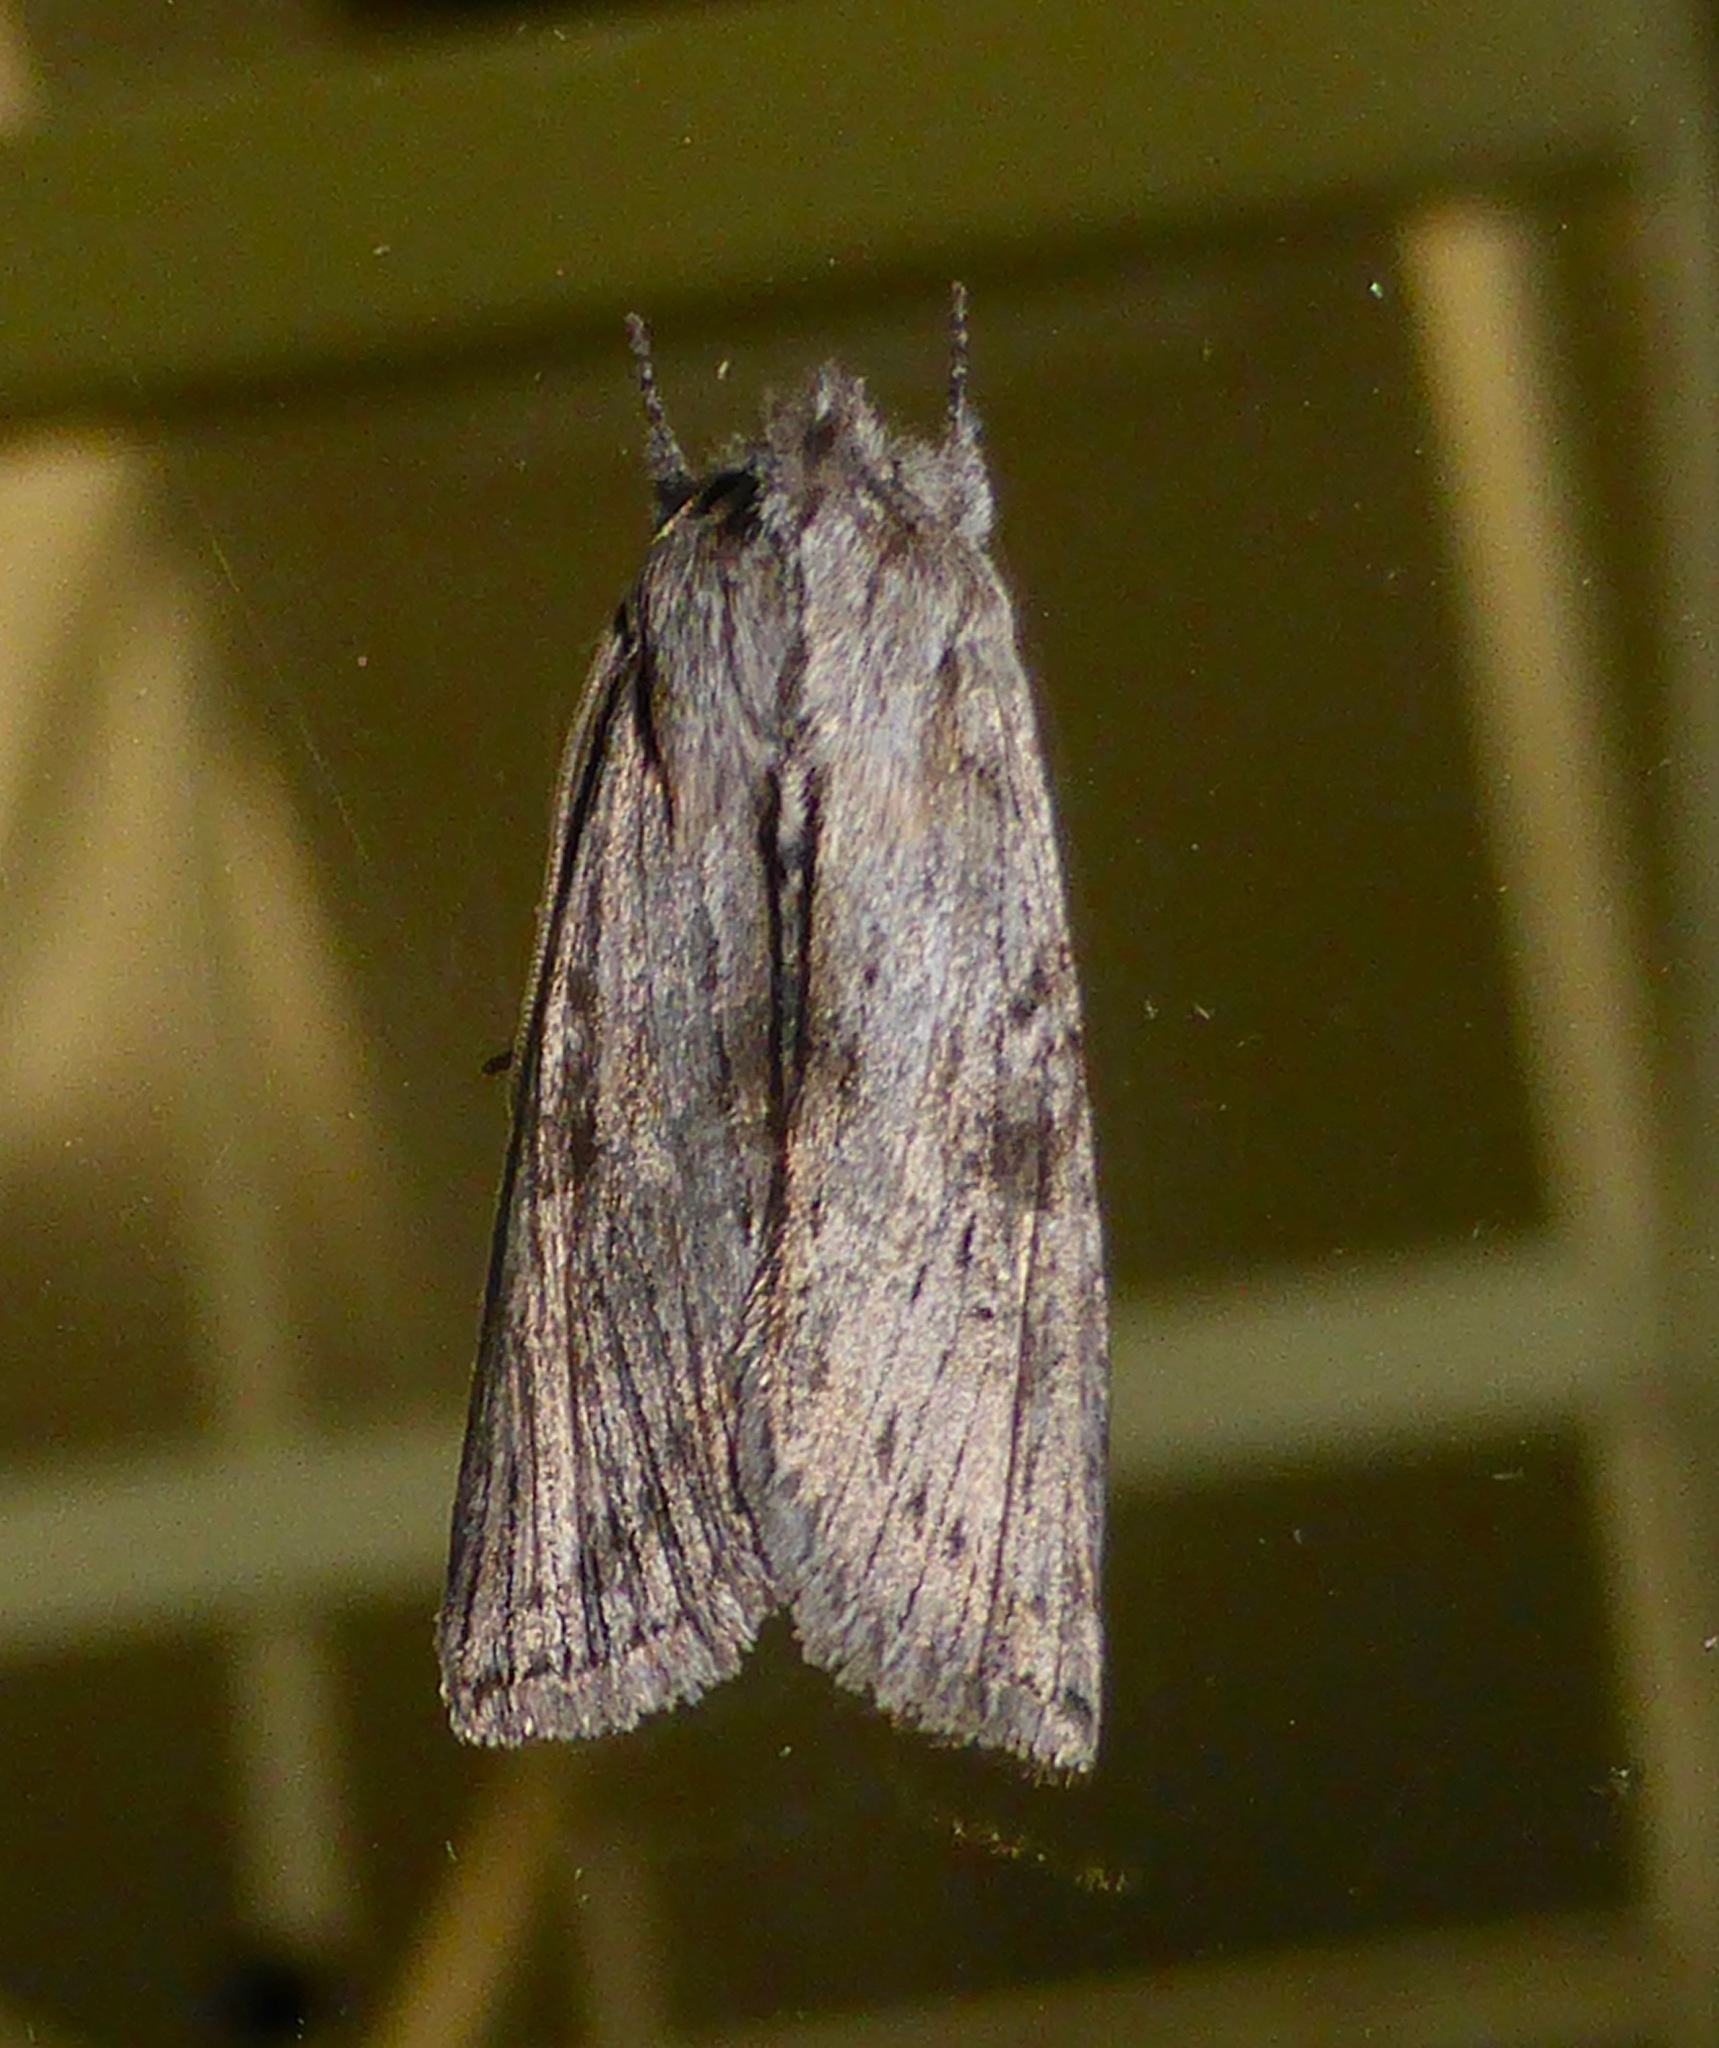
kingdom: Animalia
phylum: Arthropoda
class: Insecta
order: Lepidoptera
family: Noctuidae
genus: Physetica
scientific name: Physetica phricias
